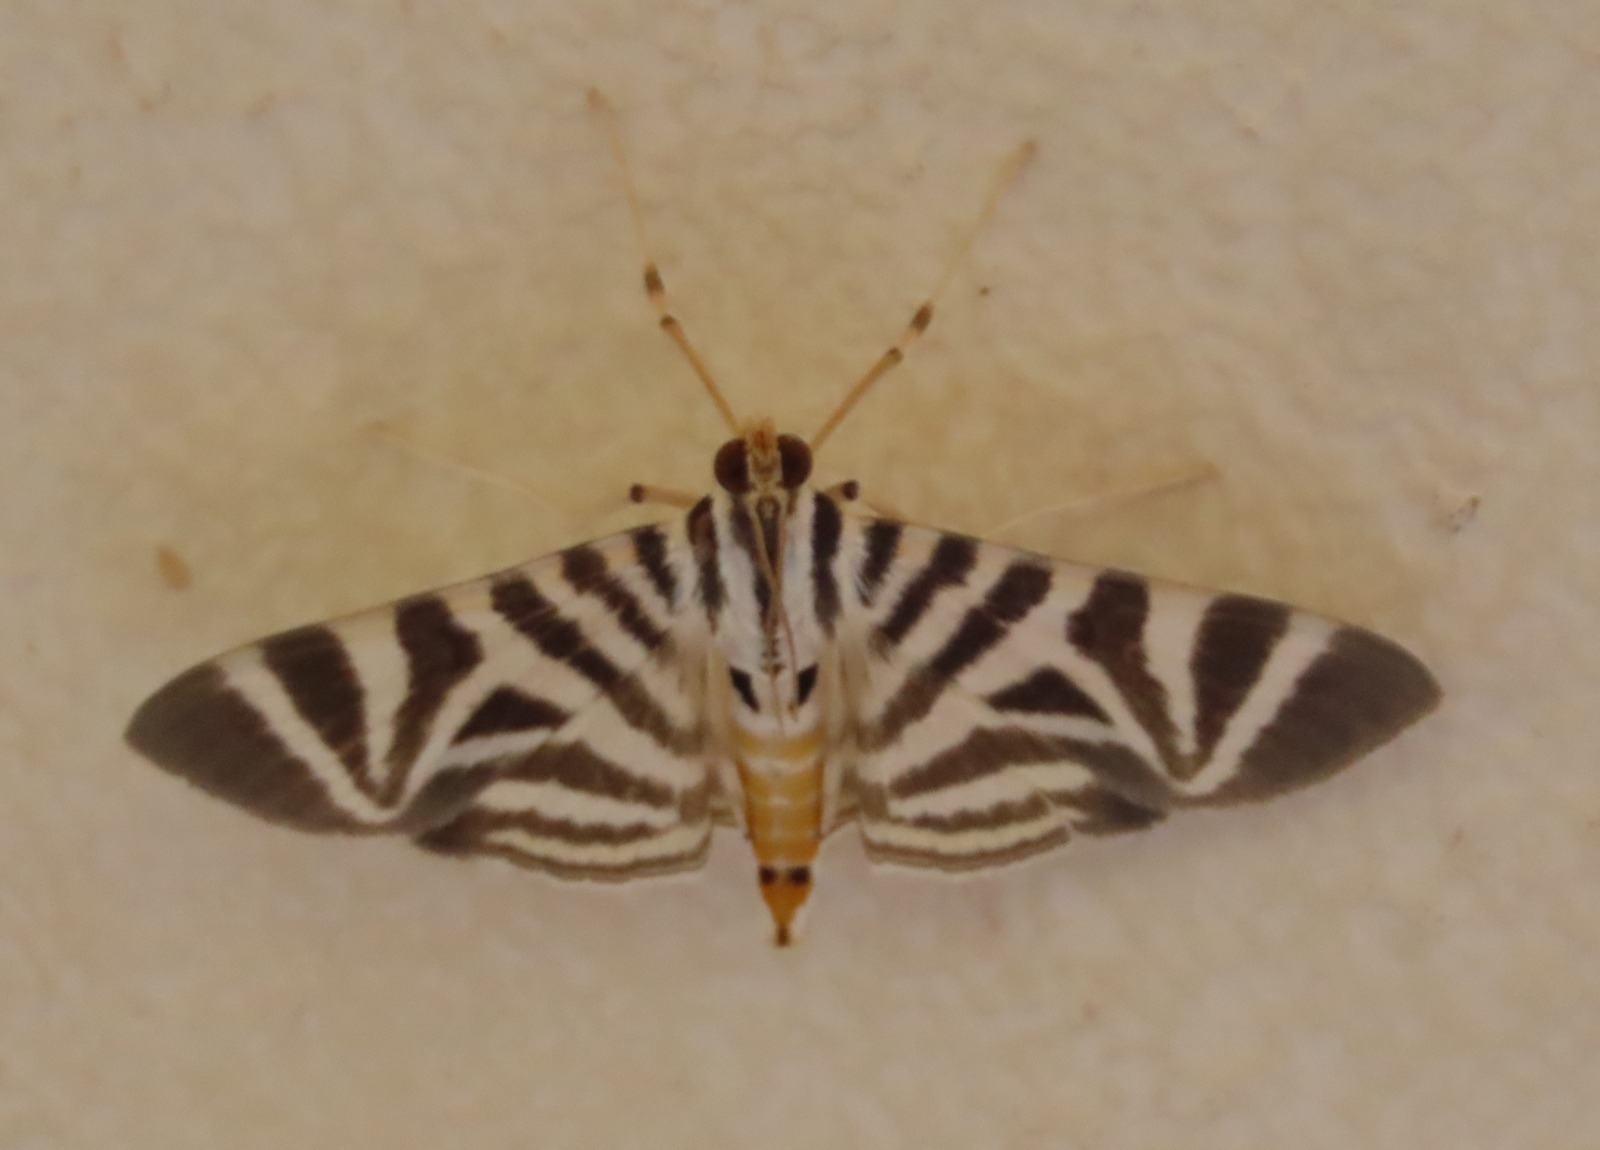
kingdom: Animalia
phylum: Arthropoda
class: Insecta
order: Lepidoptera
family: Crambidae
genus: Zebronia
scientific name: Zebronia Spilomela perspicata
